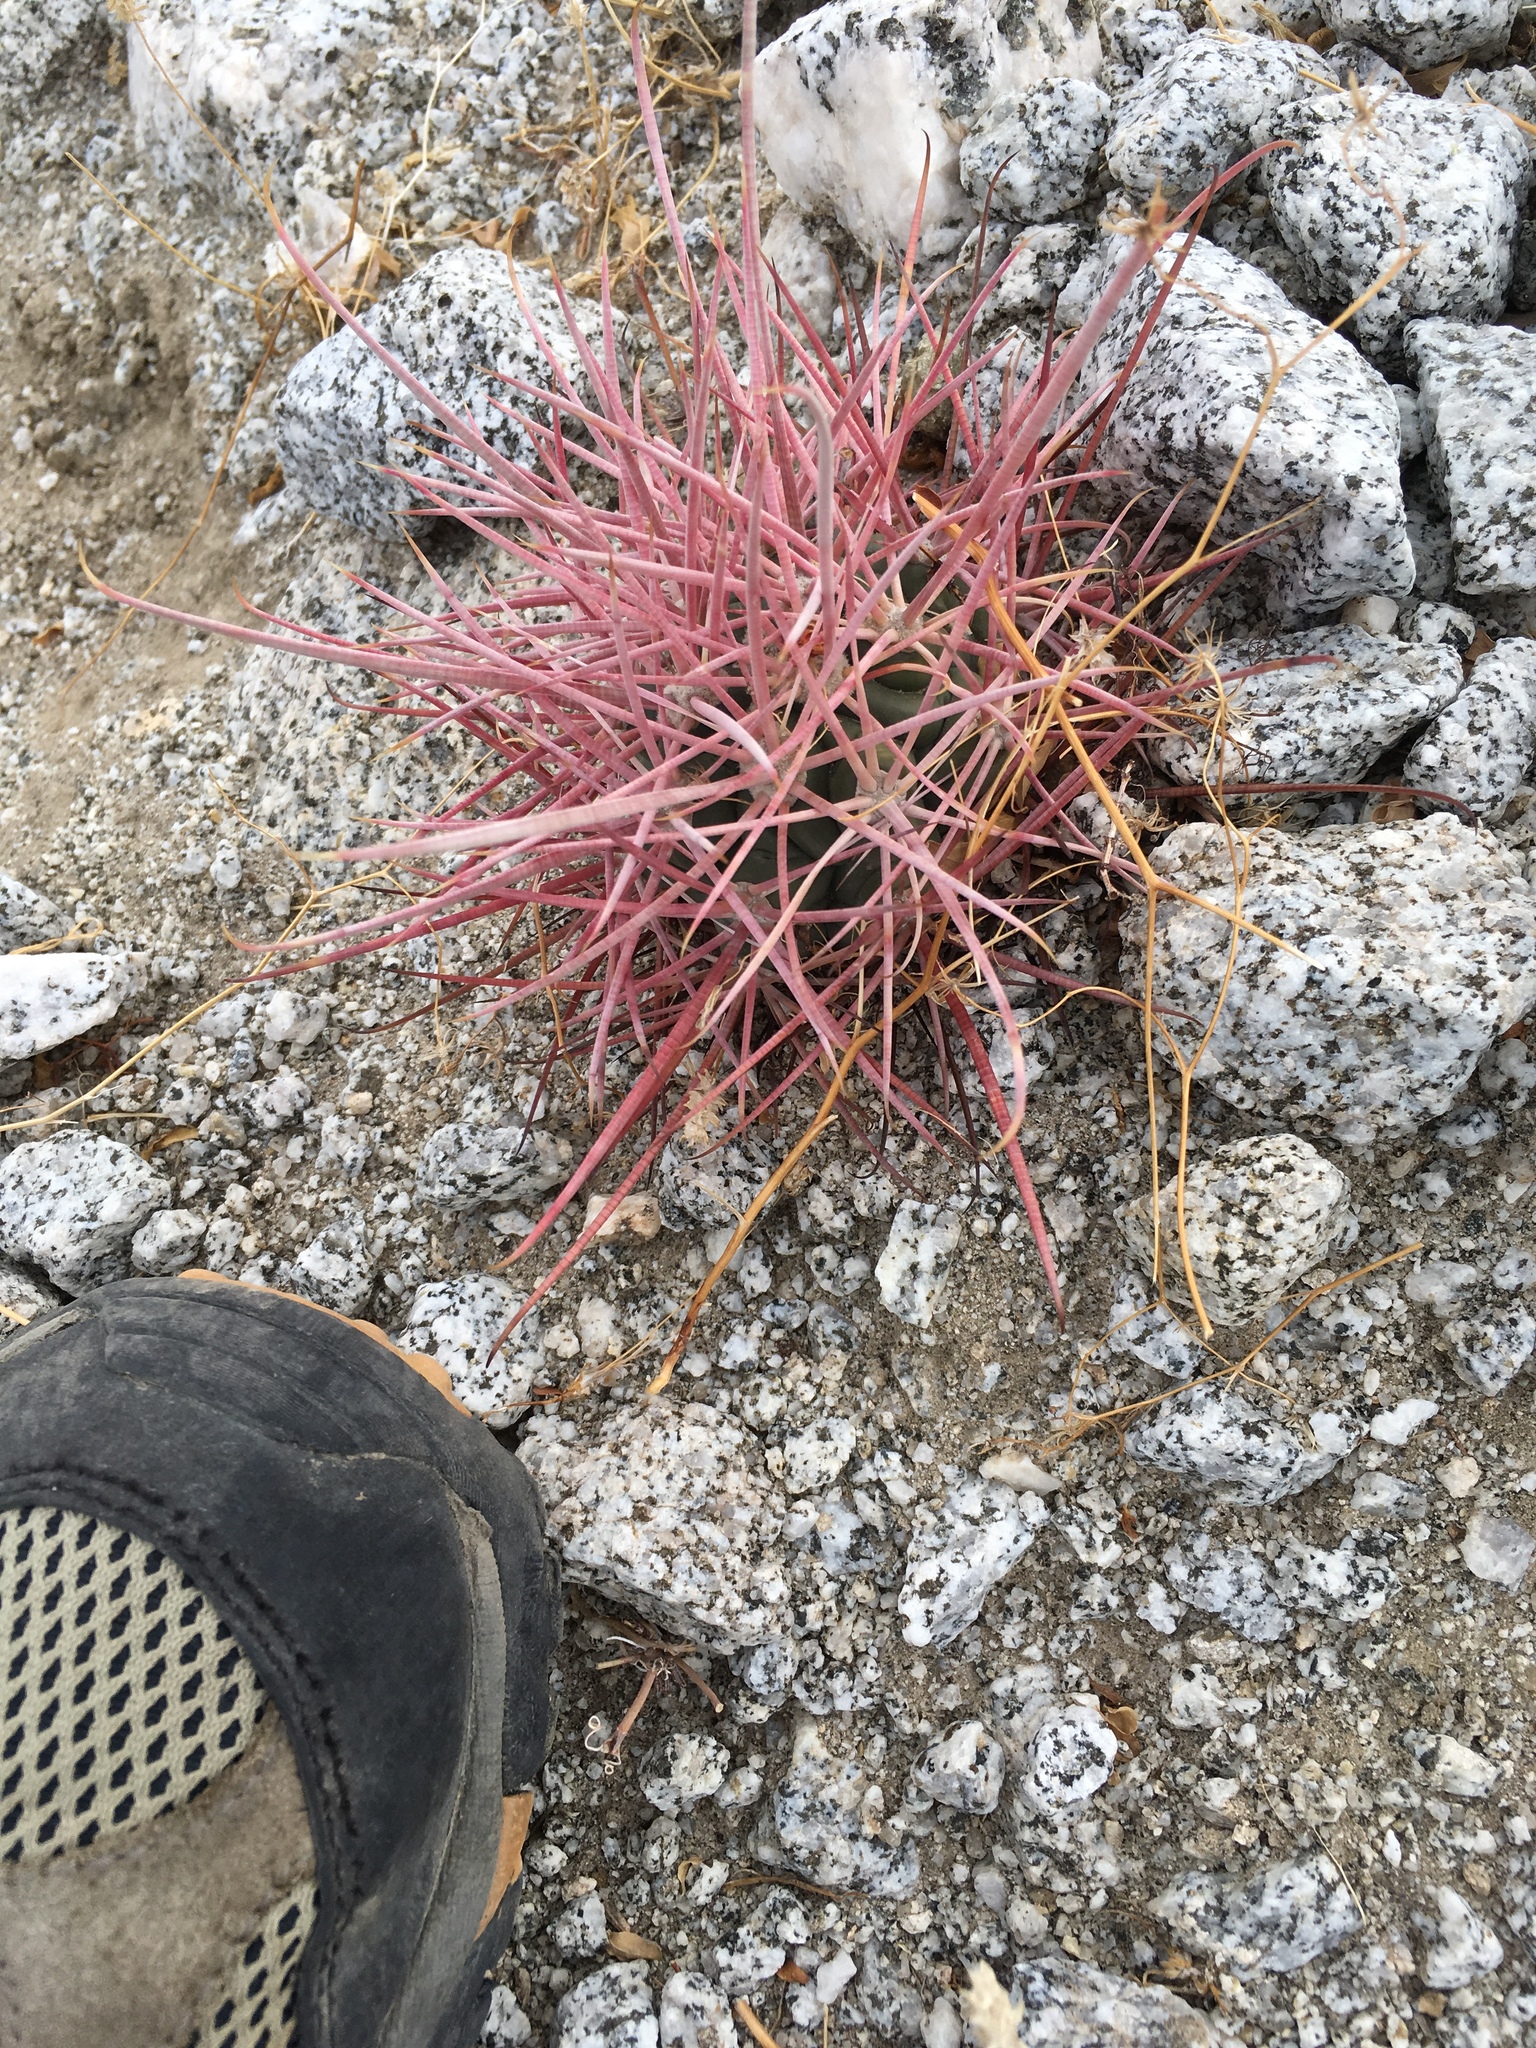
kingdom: Plantae
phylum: Tracheophyta
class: Magnoliopsida
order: Caryophyllales
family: Cactaceae
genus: Ferocactus
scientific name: Ferocactus cylindraceus
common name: California barrel cactus
